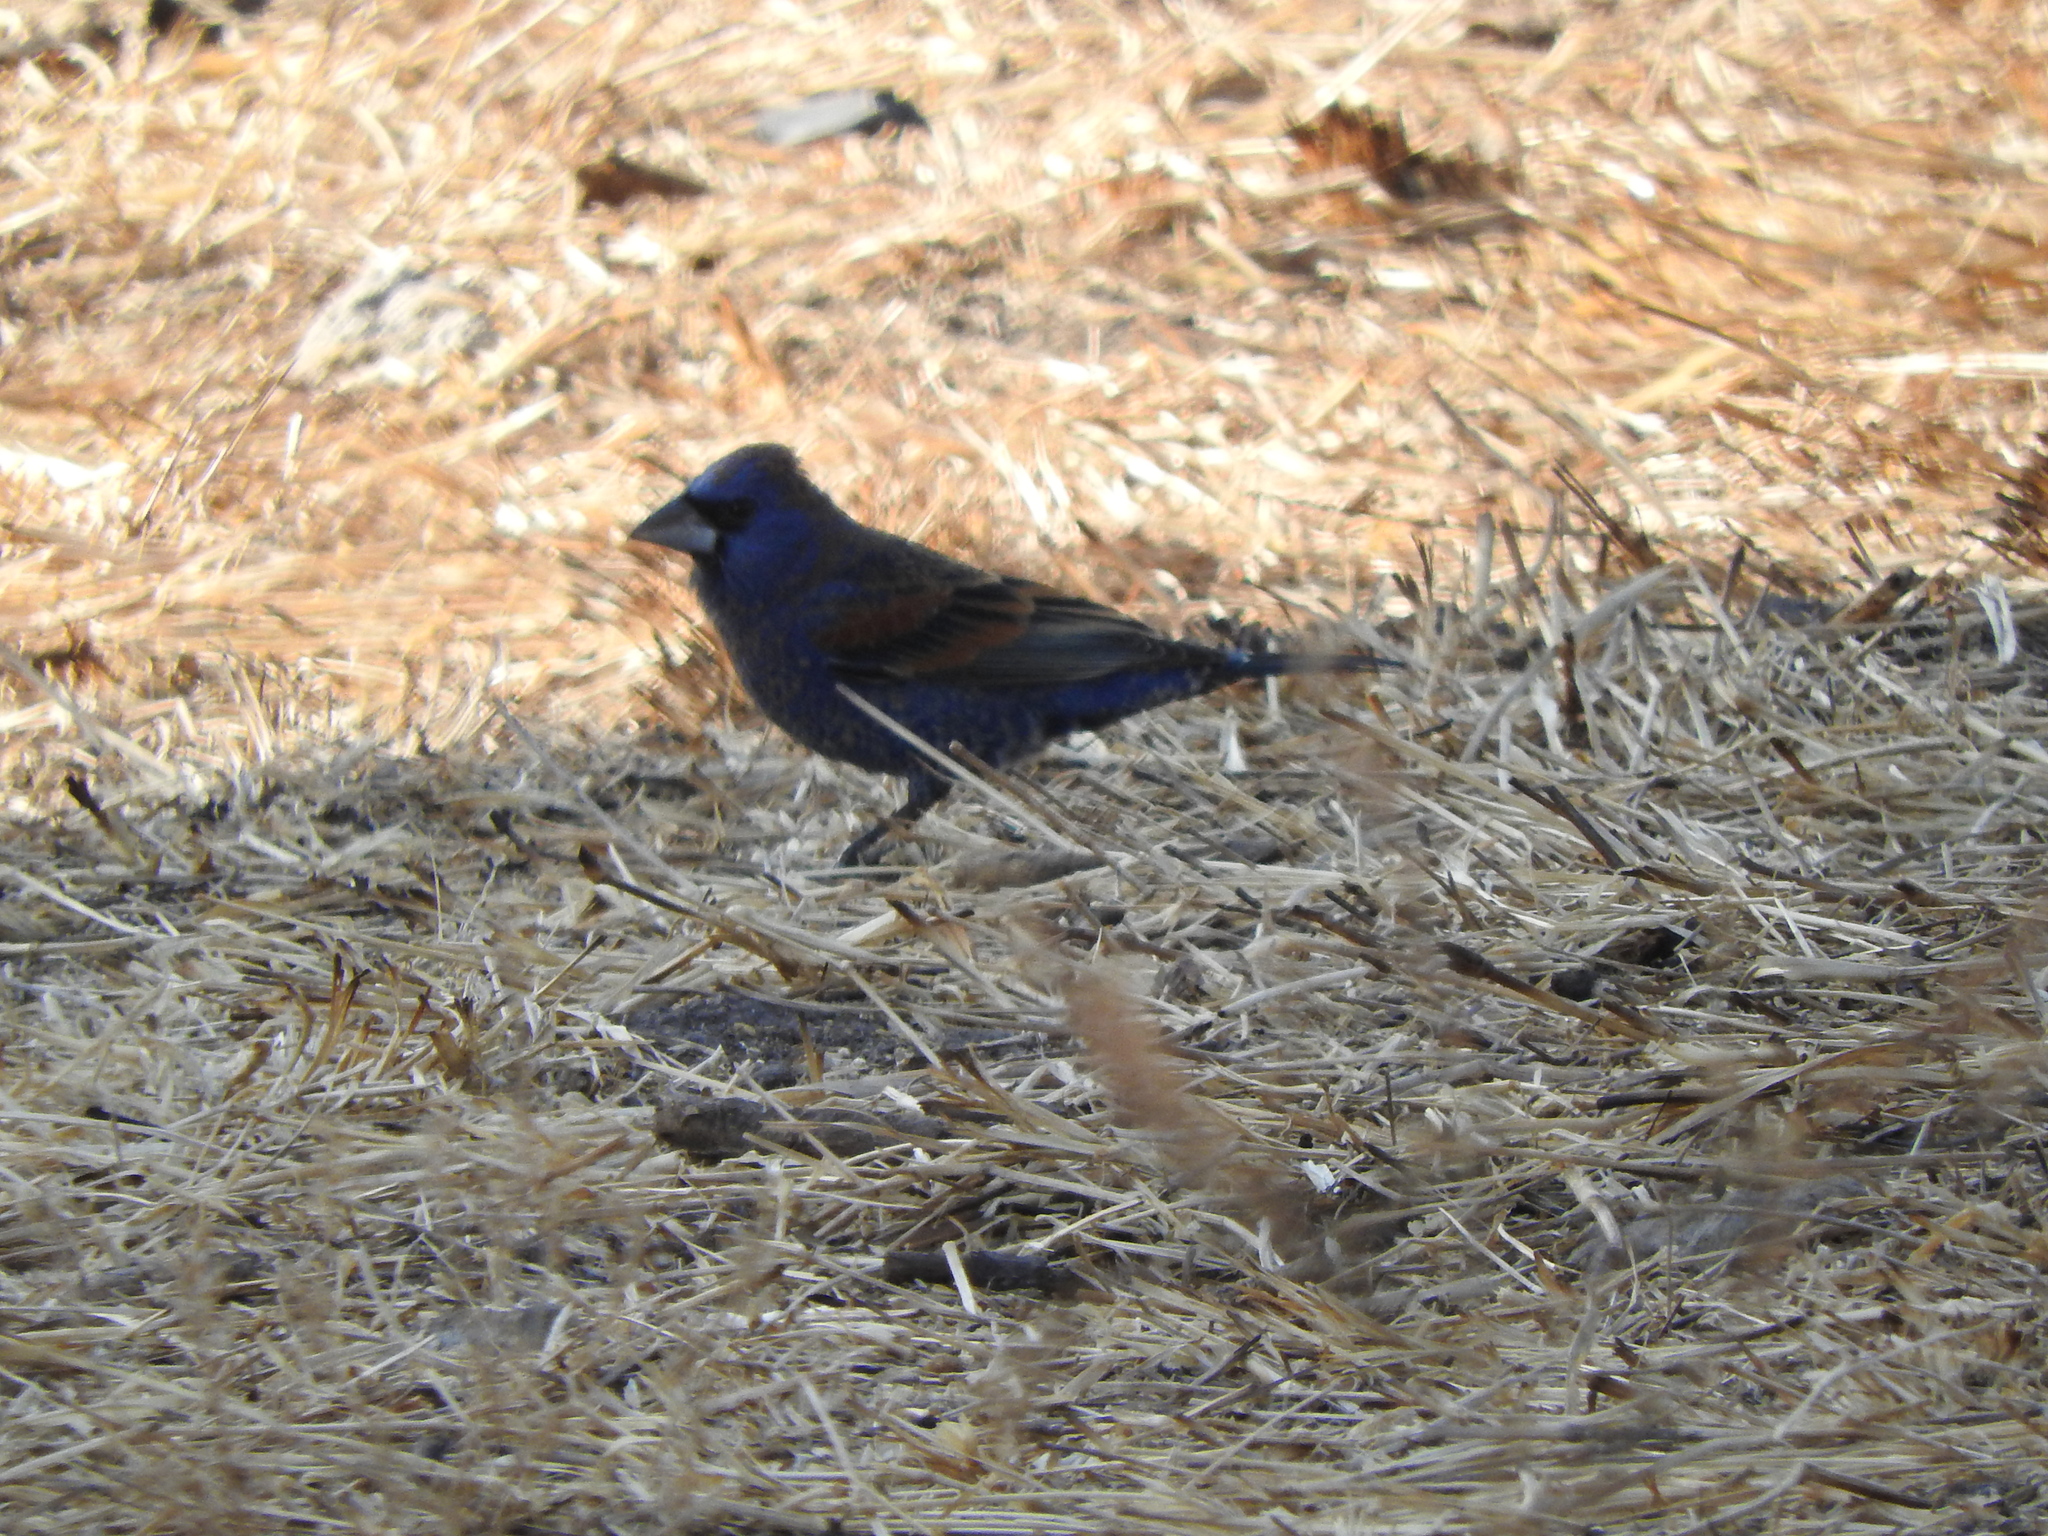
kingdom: Animalia
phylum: Chordata
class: Aves
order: Passeriformes
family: Cardinalidae
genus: Passerina
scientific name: Passerina caerulea
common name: Blue grosbeak
